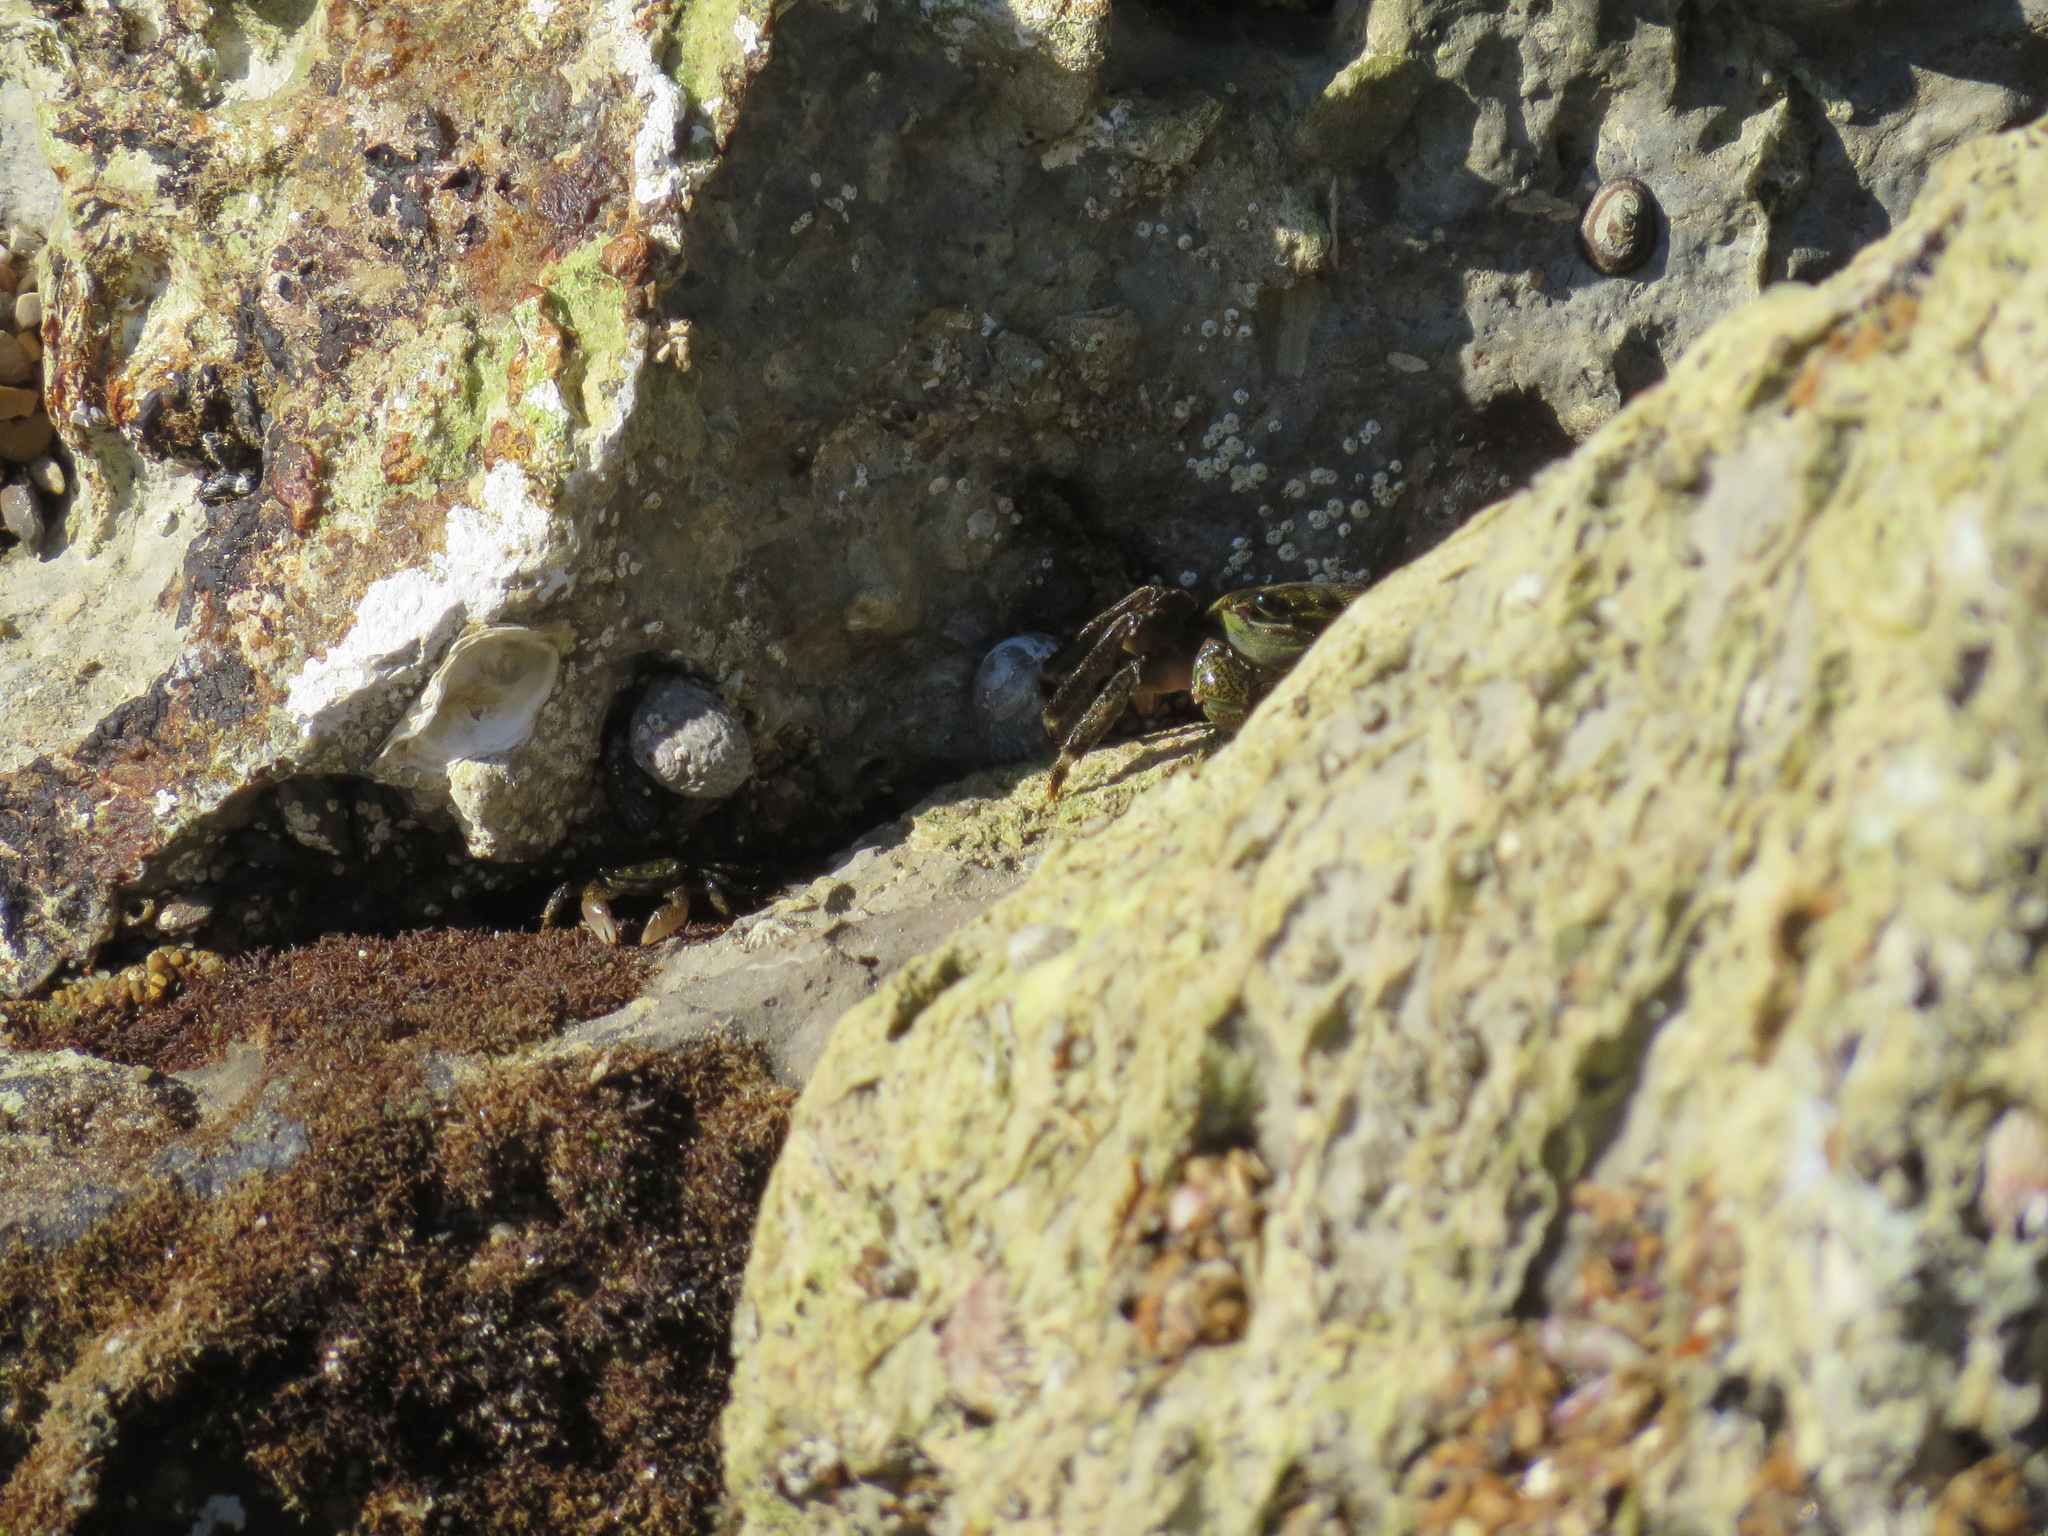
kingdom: Animalia
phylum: Arthropoda
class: Malacostraca
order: Decapoda
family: Grapsidae
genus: Pachygrapsus
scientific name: Pachygrapsus crassipes
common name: Striped shore crab
